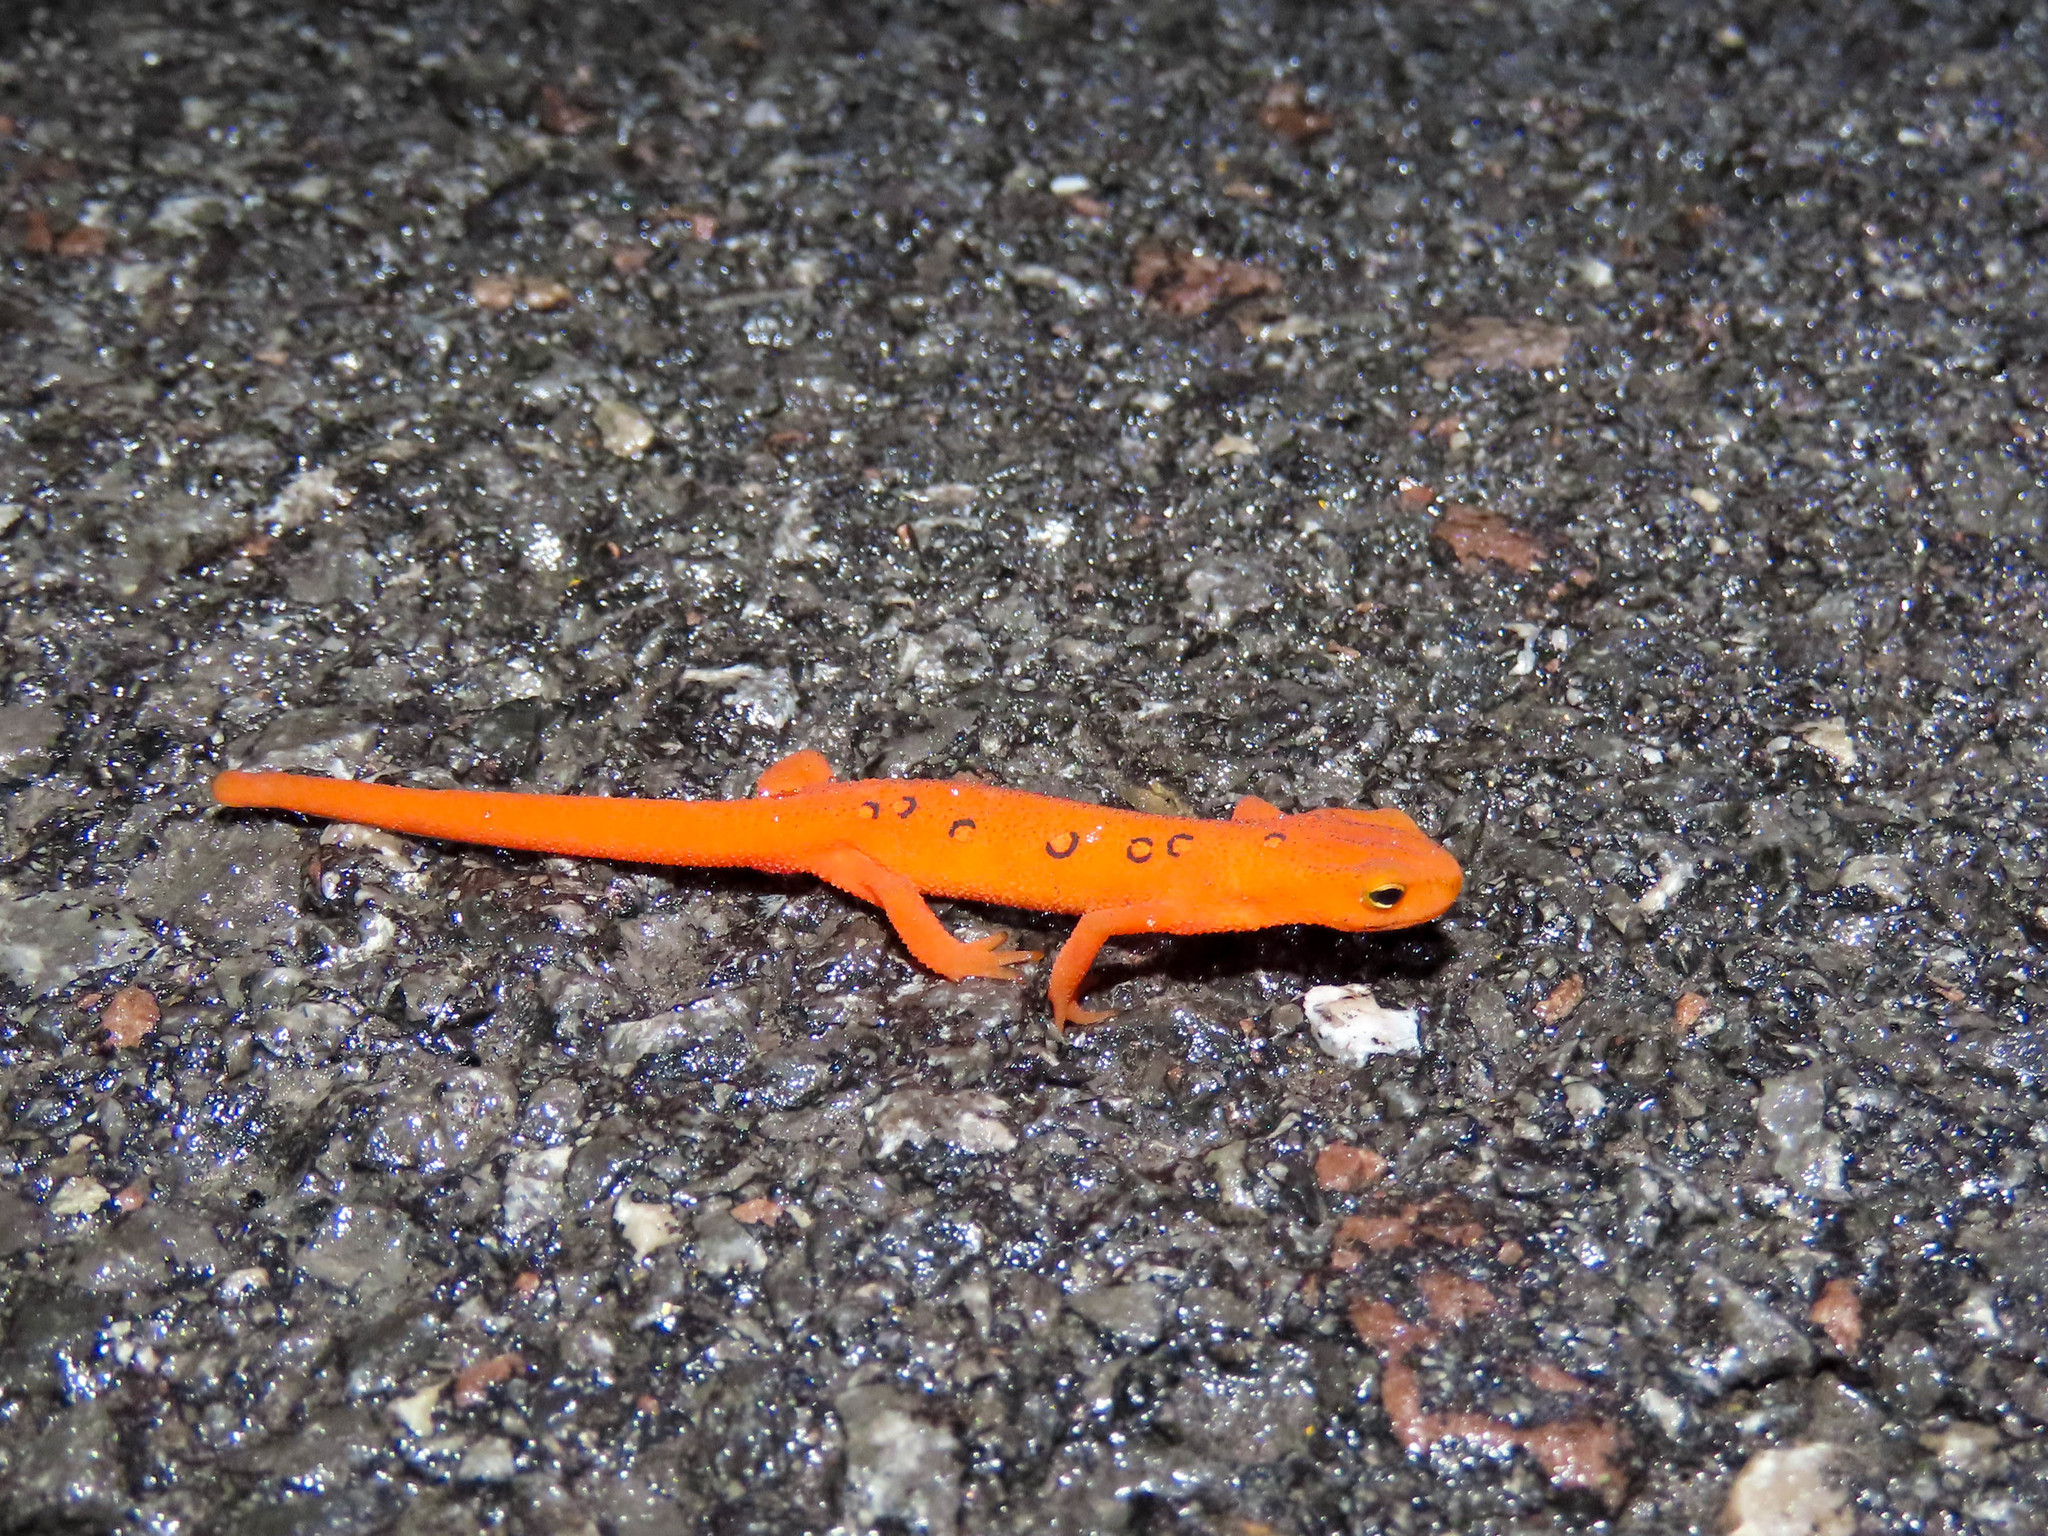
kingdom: Animalia
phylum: Chordata
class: Amphibia
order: Caudata
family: Salamandridae
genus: Notophthalmus
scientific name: Notophthalmus viridescens
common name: Eastern newt
